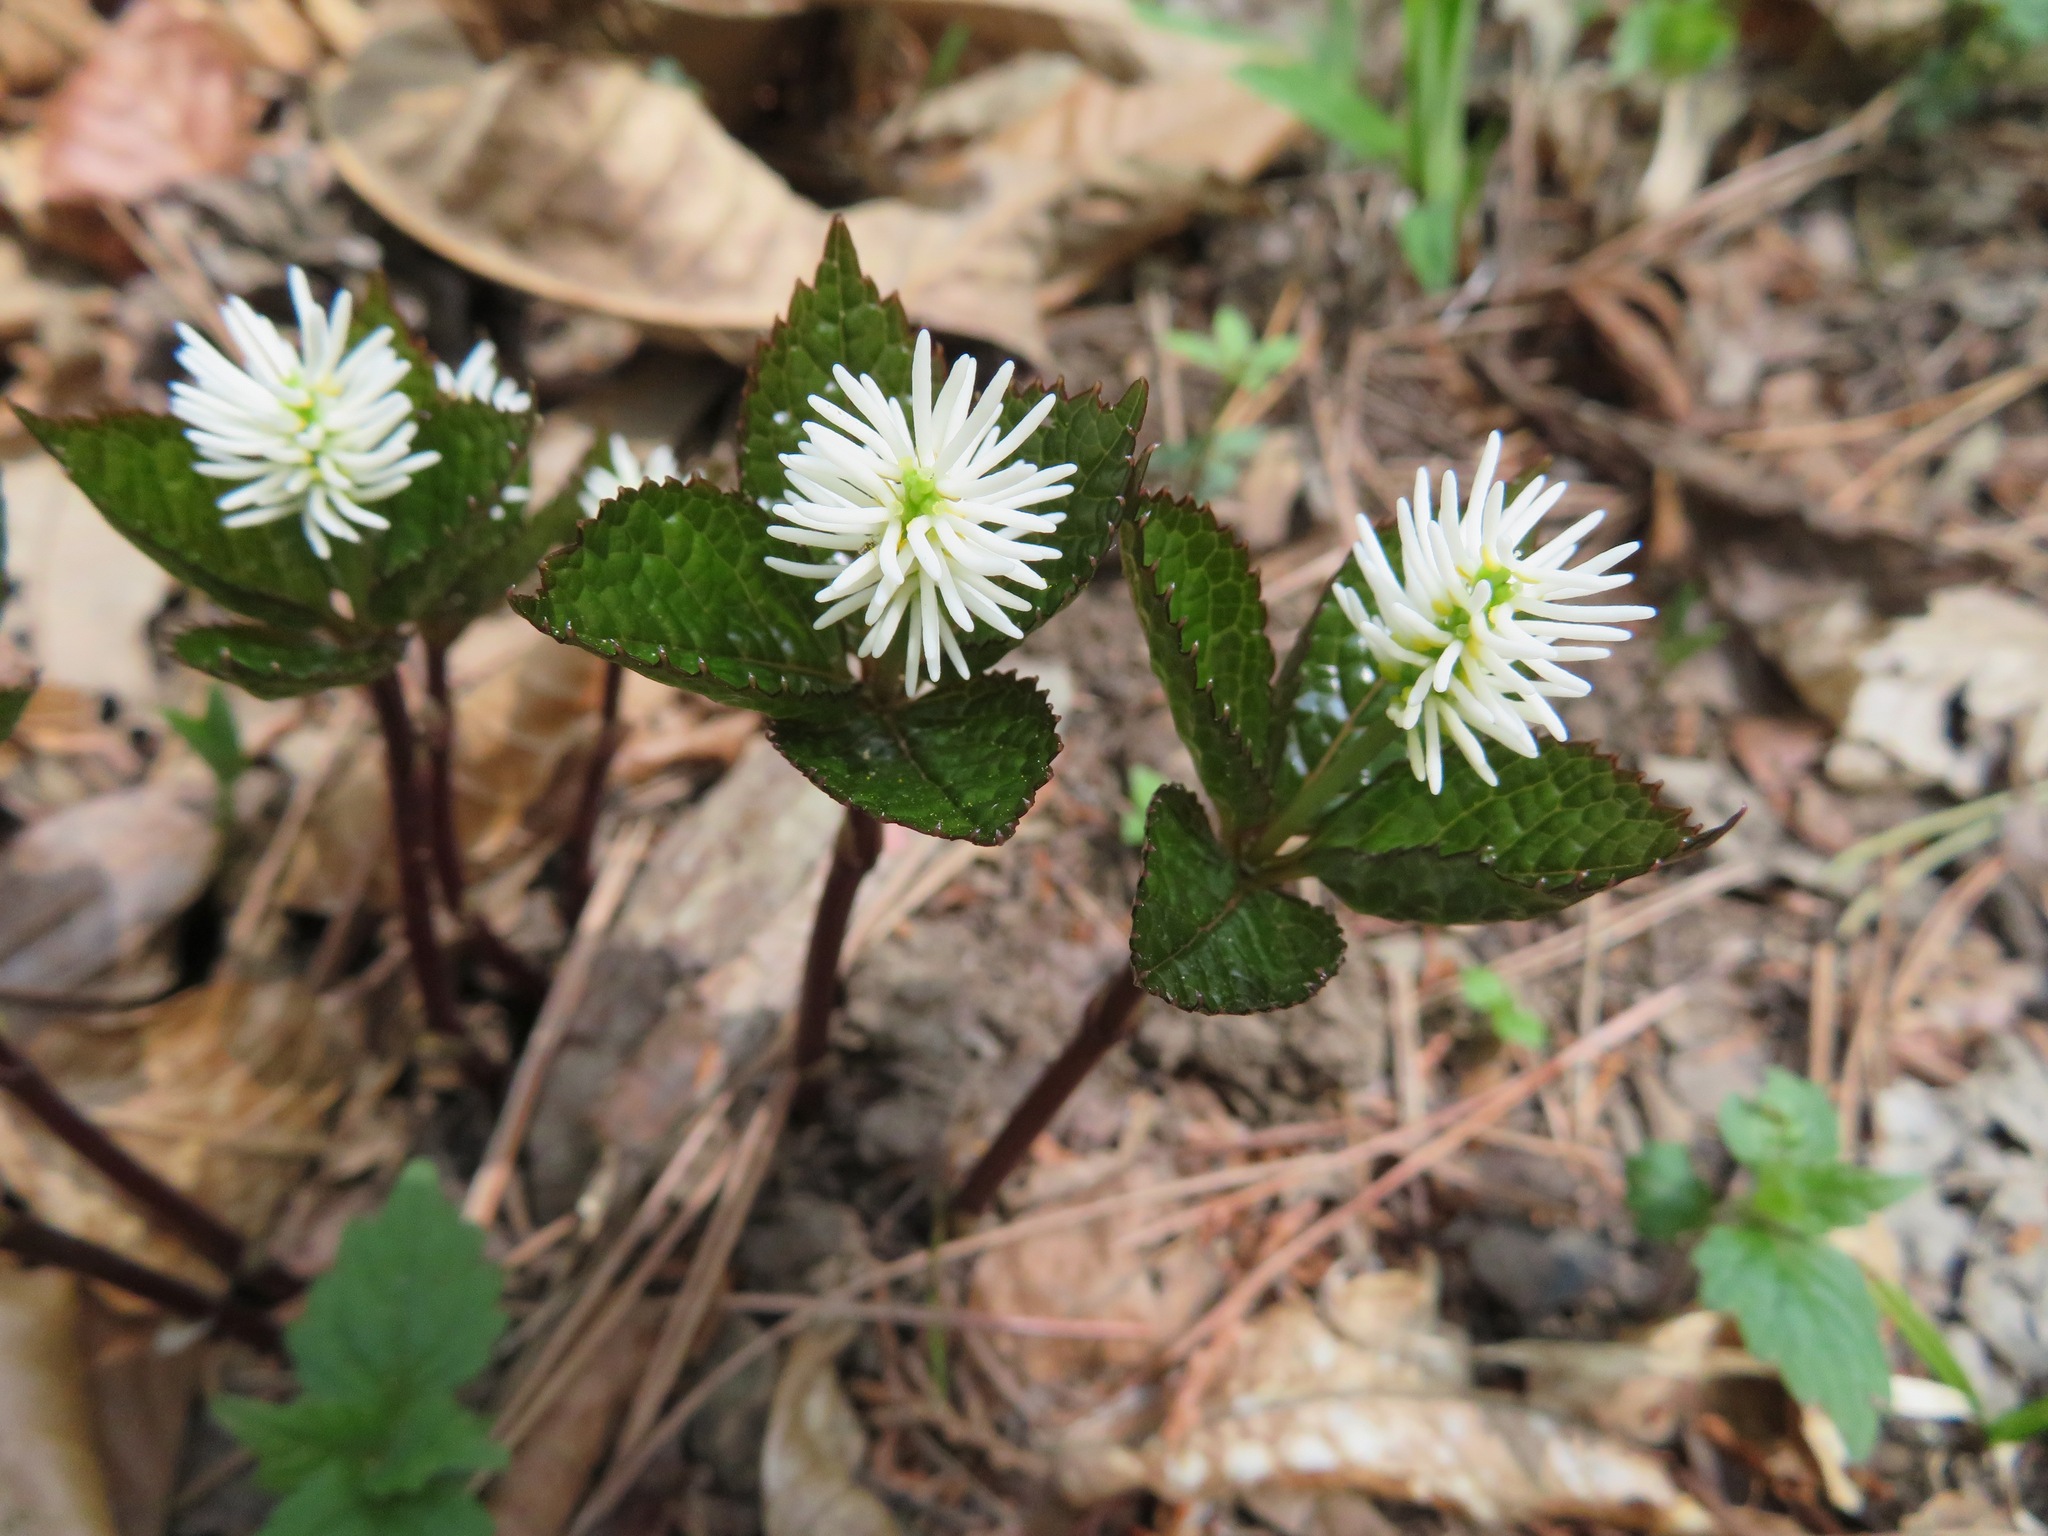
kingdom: Plantae
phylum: Tracheophyta
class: Magnoliopsida
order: Chloranthales
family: Chloranthaceae
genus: Chloranthus
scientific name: Chloranthus quadrifolius
